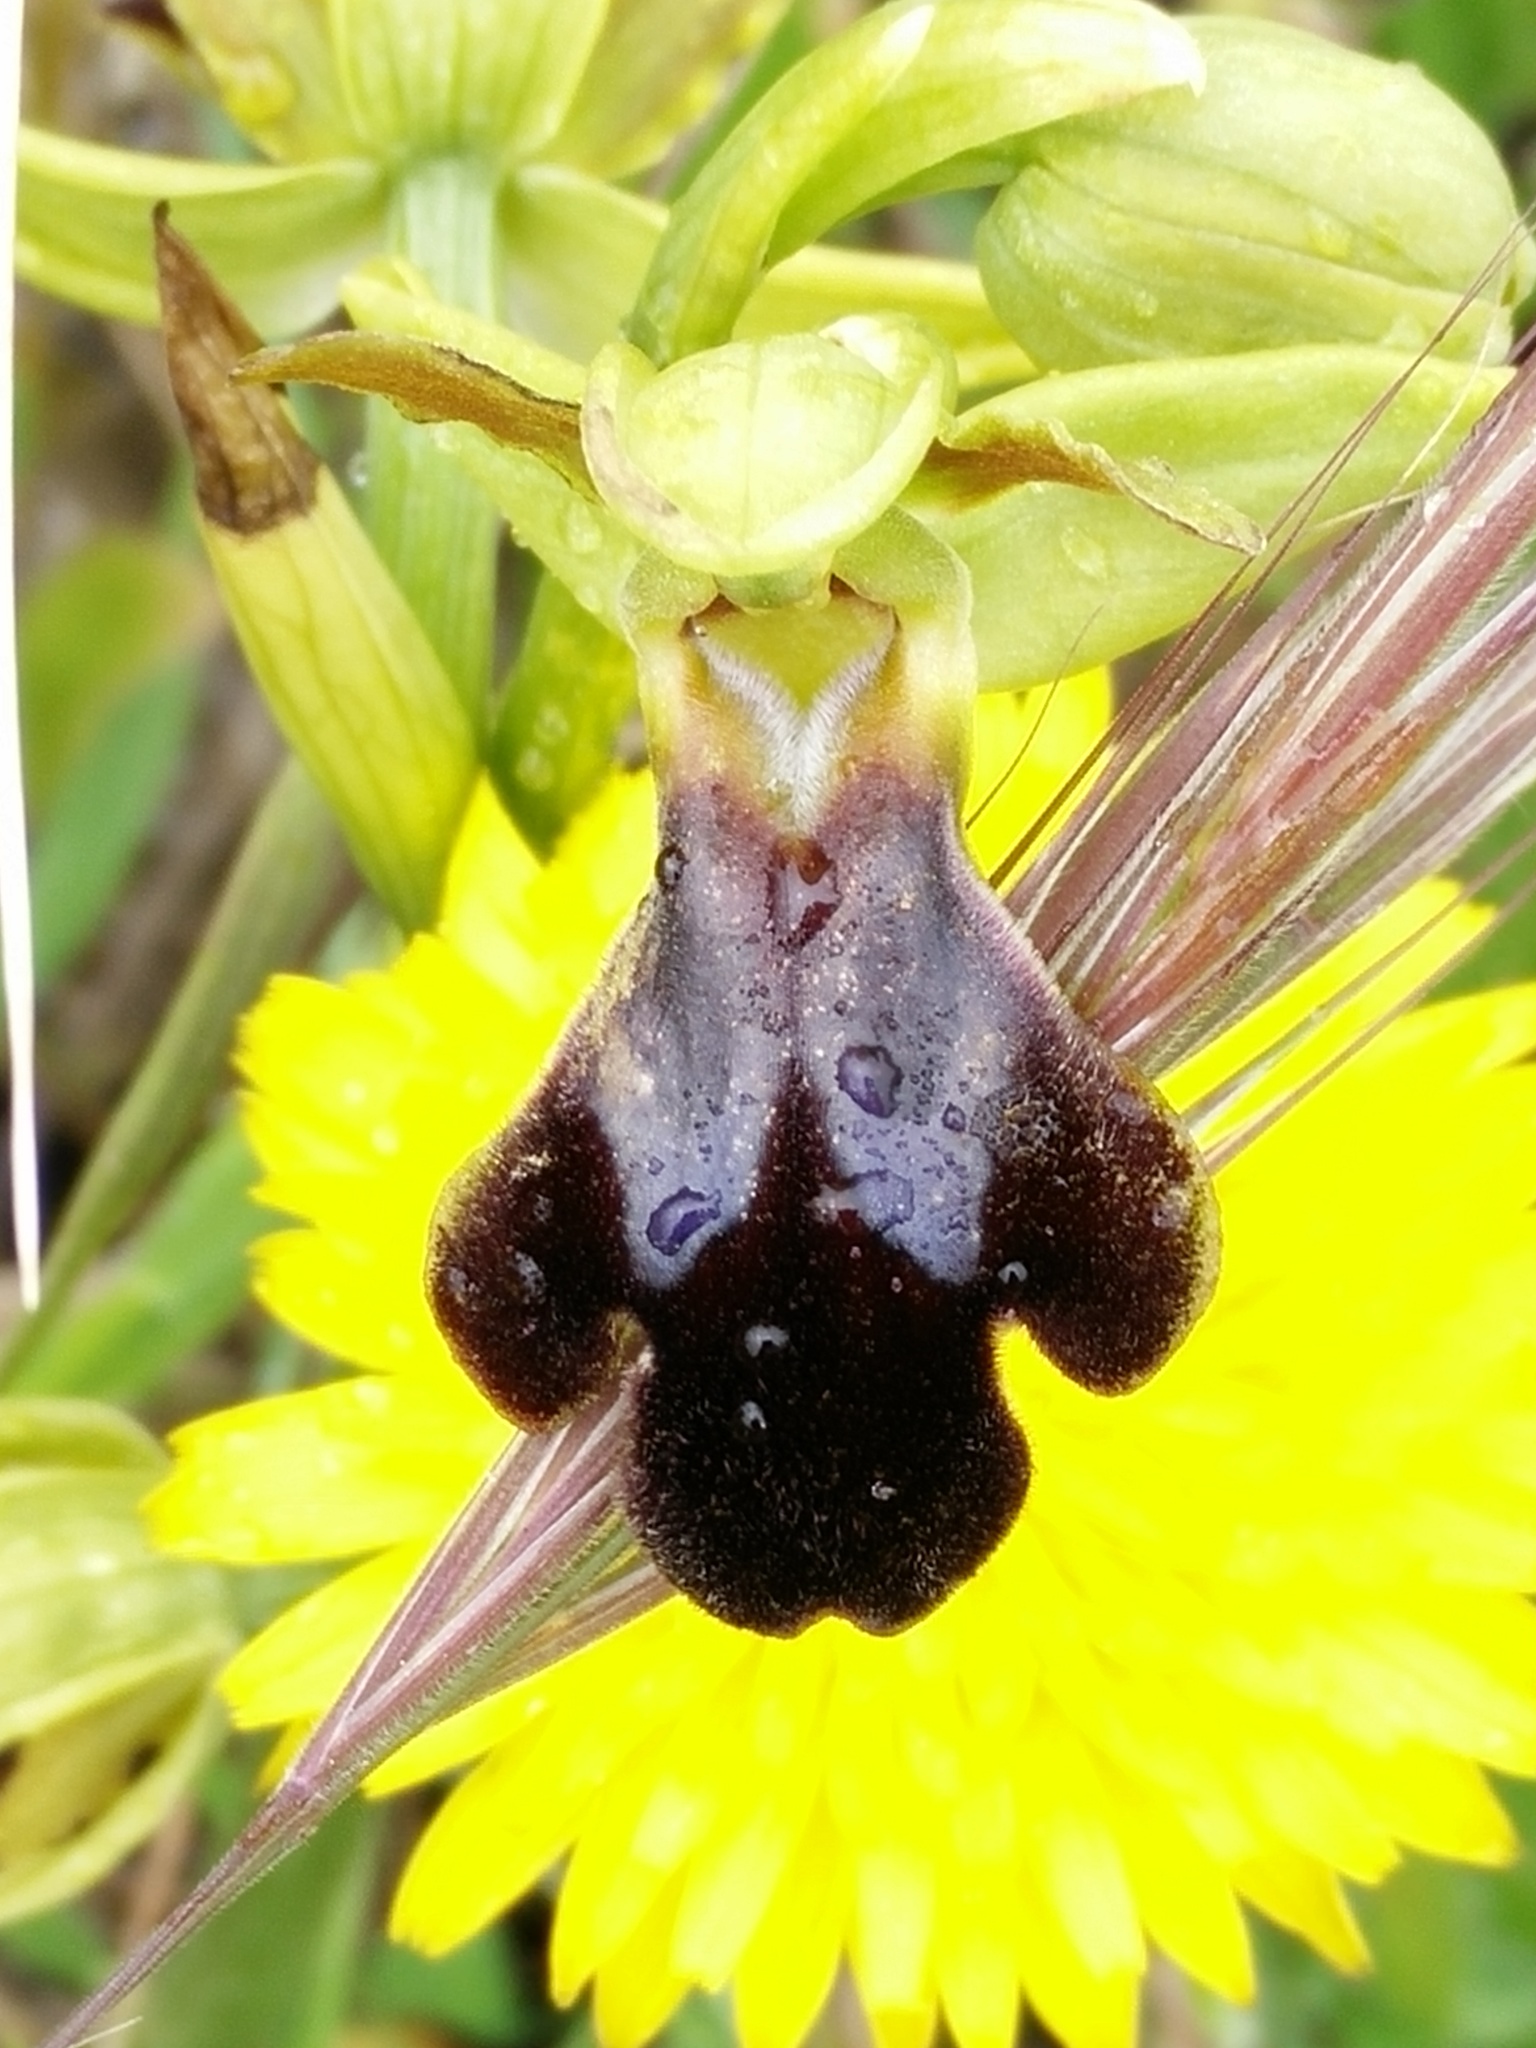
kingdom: Plantae
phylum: Tracheophyta
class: Liliopsida
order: Asparagales
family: Orchidaceae
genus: Ophrys
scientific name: Ophrys fusca
